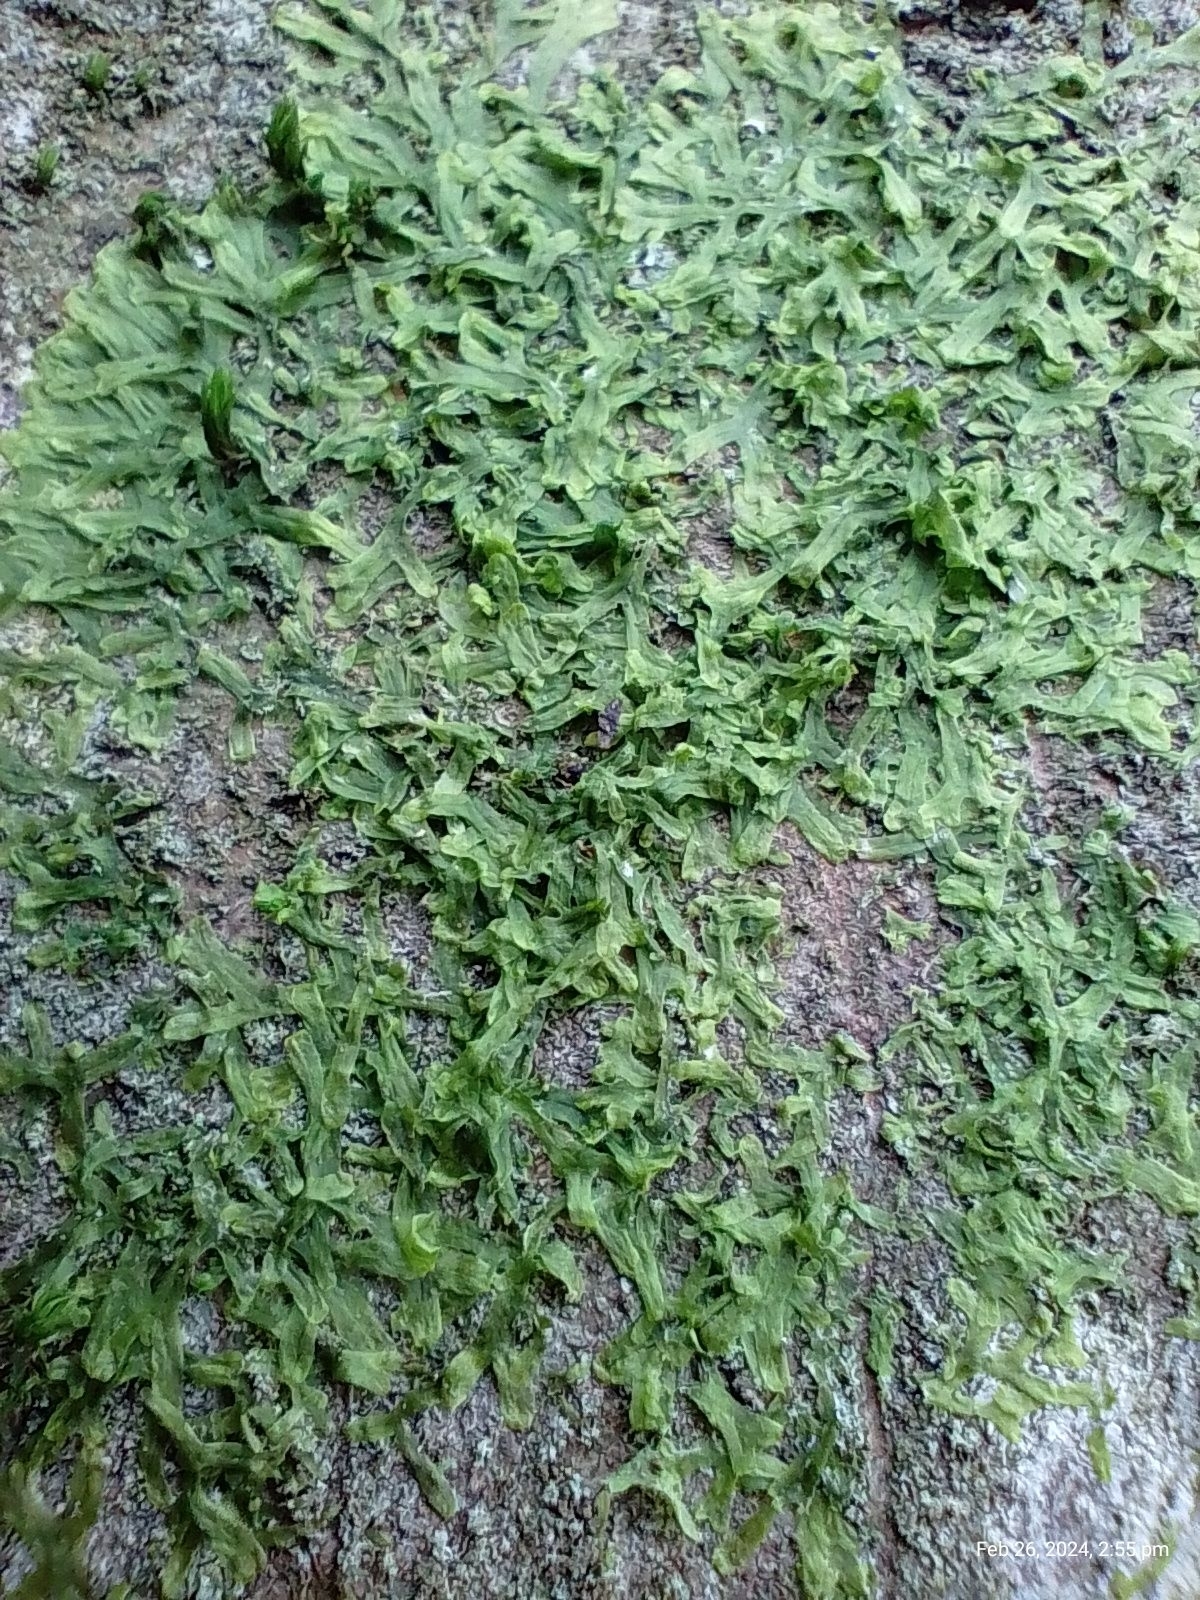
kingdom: Plantae
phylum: Marchantiophyta
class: Jungermanniopsida
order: Metzgeriales
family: Metzgeriaceae
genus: Metzgeria
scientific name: Metzgeria furcata
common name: Forked veilwort
